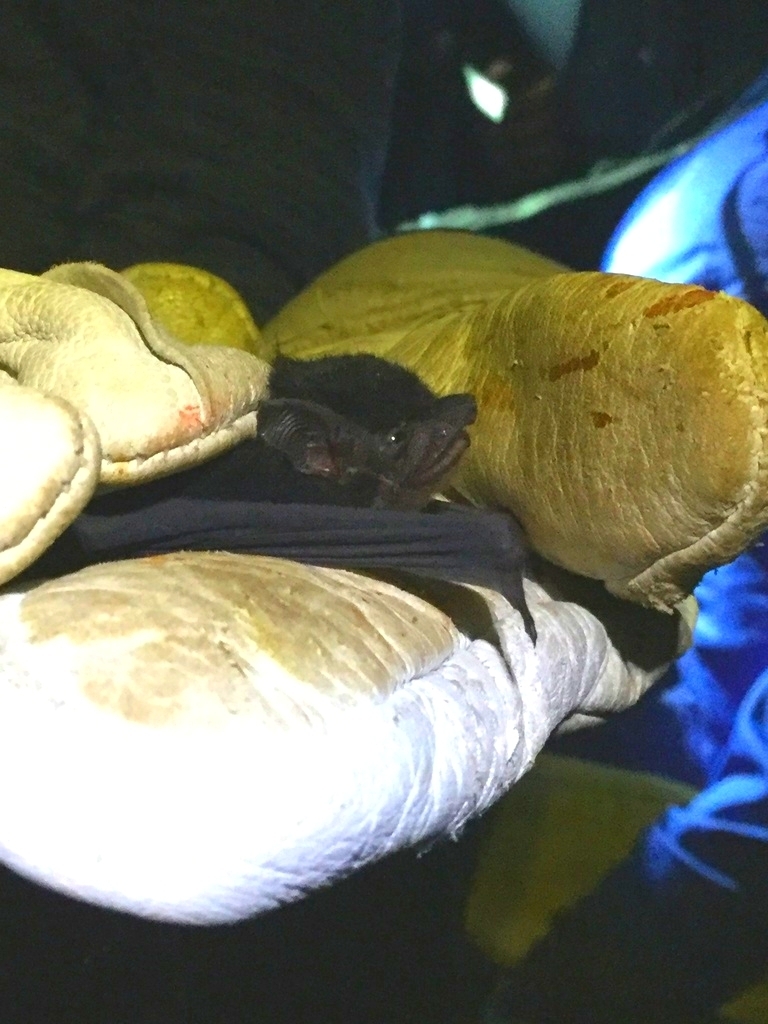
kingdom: Animalia
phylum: Chordata
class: Mammalia
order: Chiroptera
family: Emballonuridae
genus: Saccopteryx
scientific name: Saccopteryx bilineata
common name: Greater sac-winged bat
